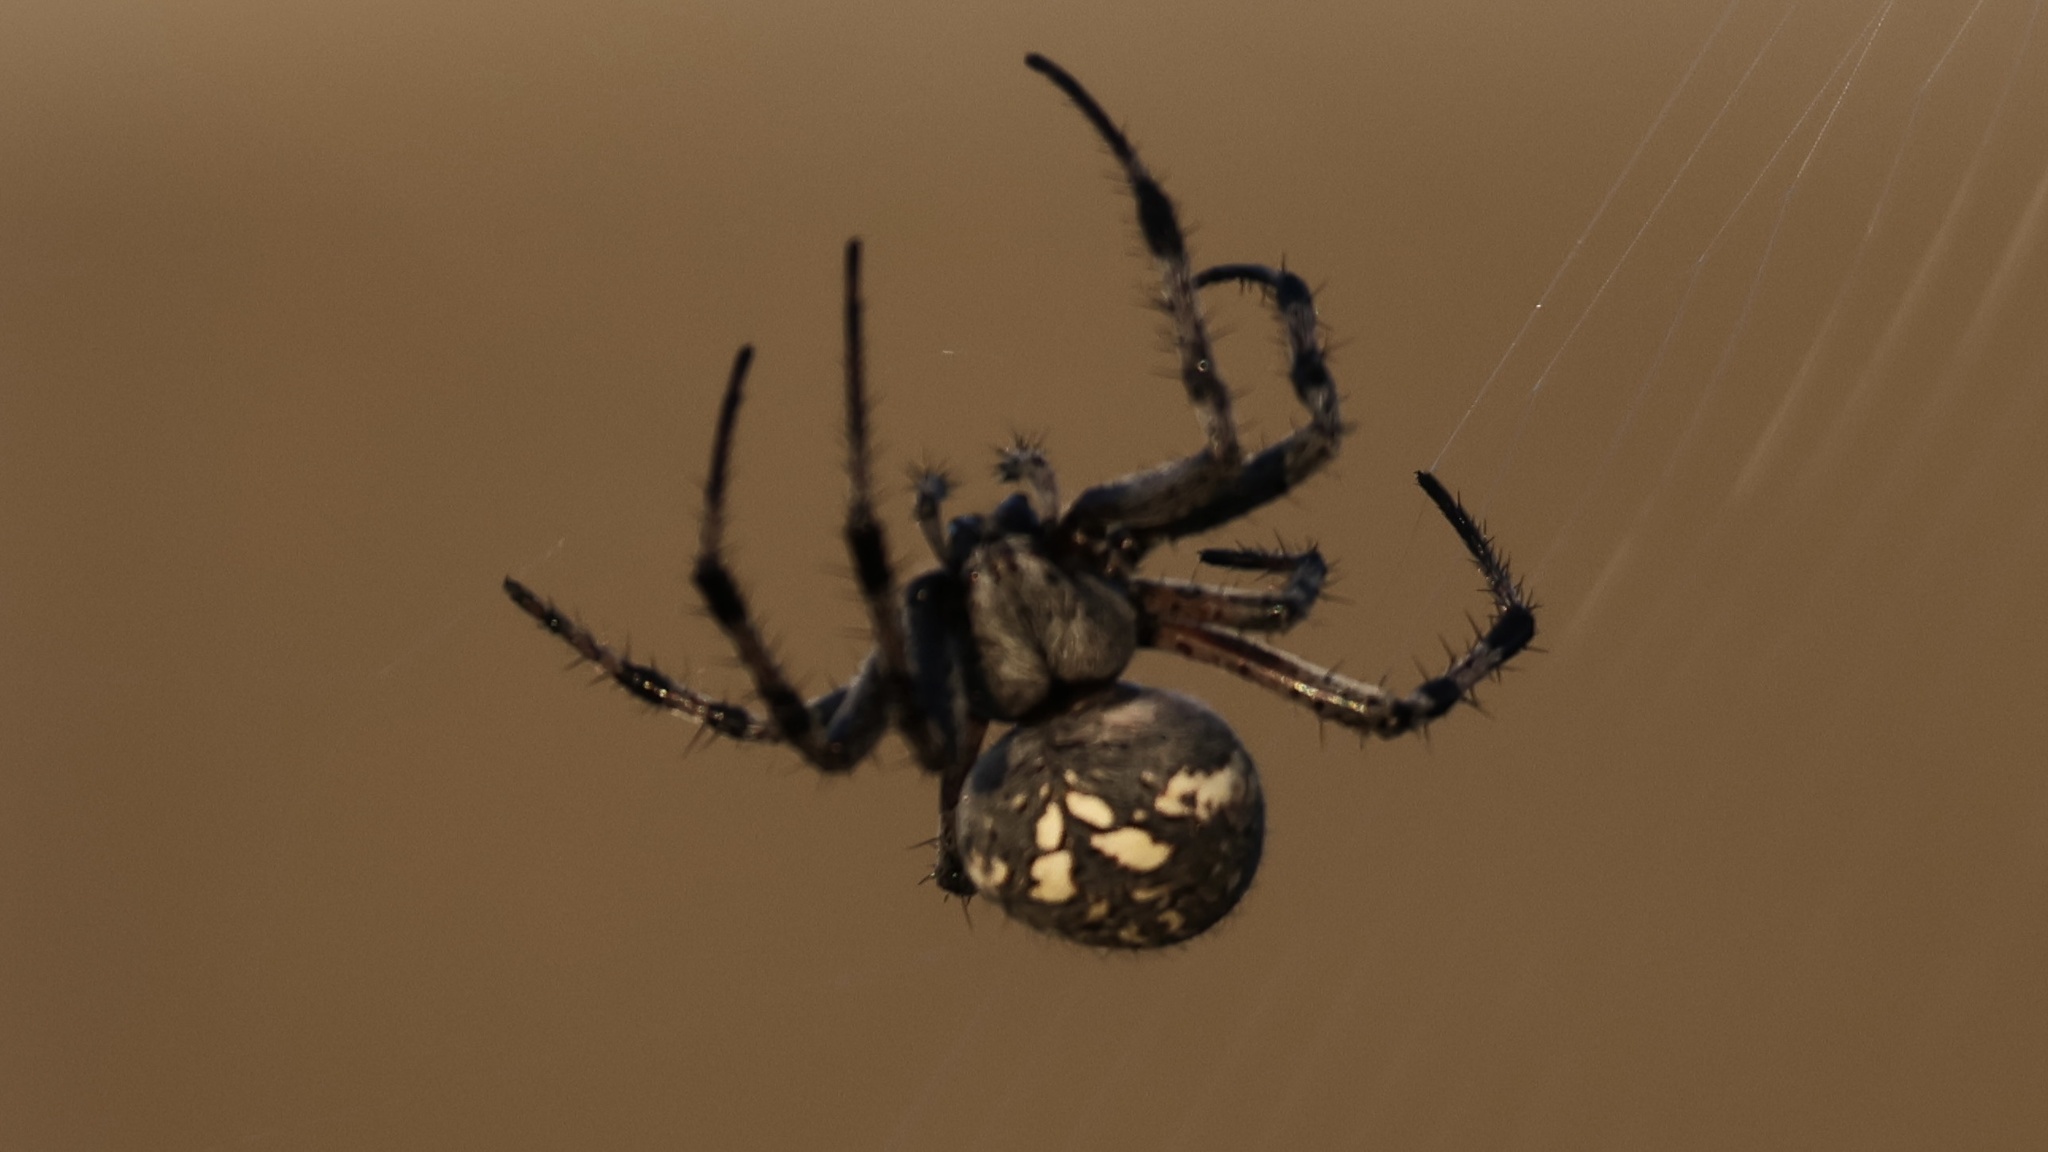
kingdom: Animalia
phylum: Arthropoda
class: Arachnida
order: Araneae
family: Araneidae
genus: Neoscona
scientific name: Neoscona oaxacensis
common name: Orb weavers
